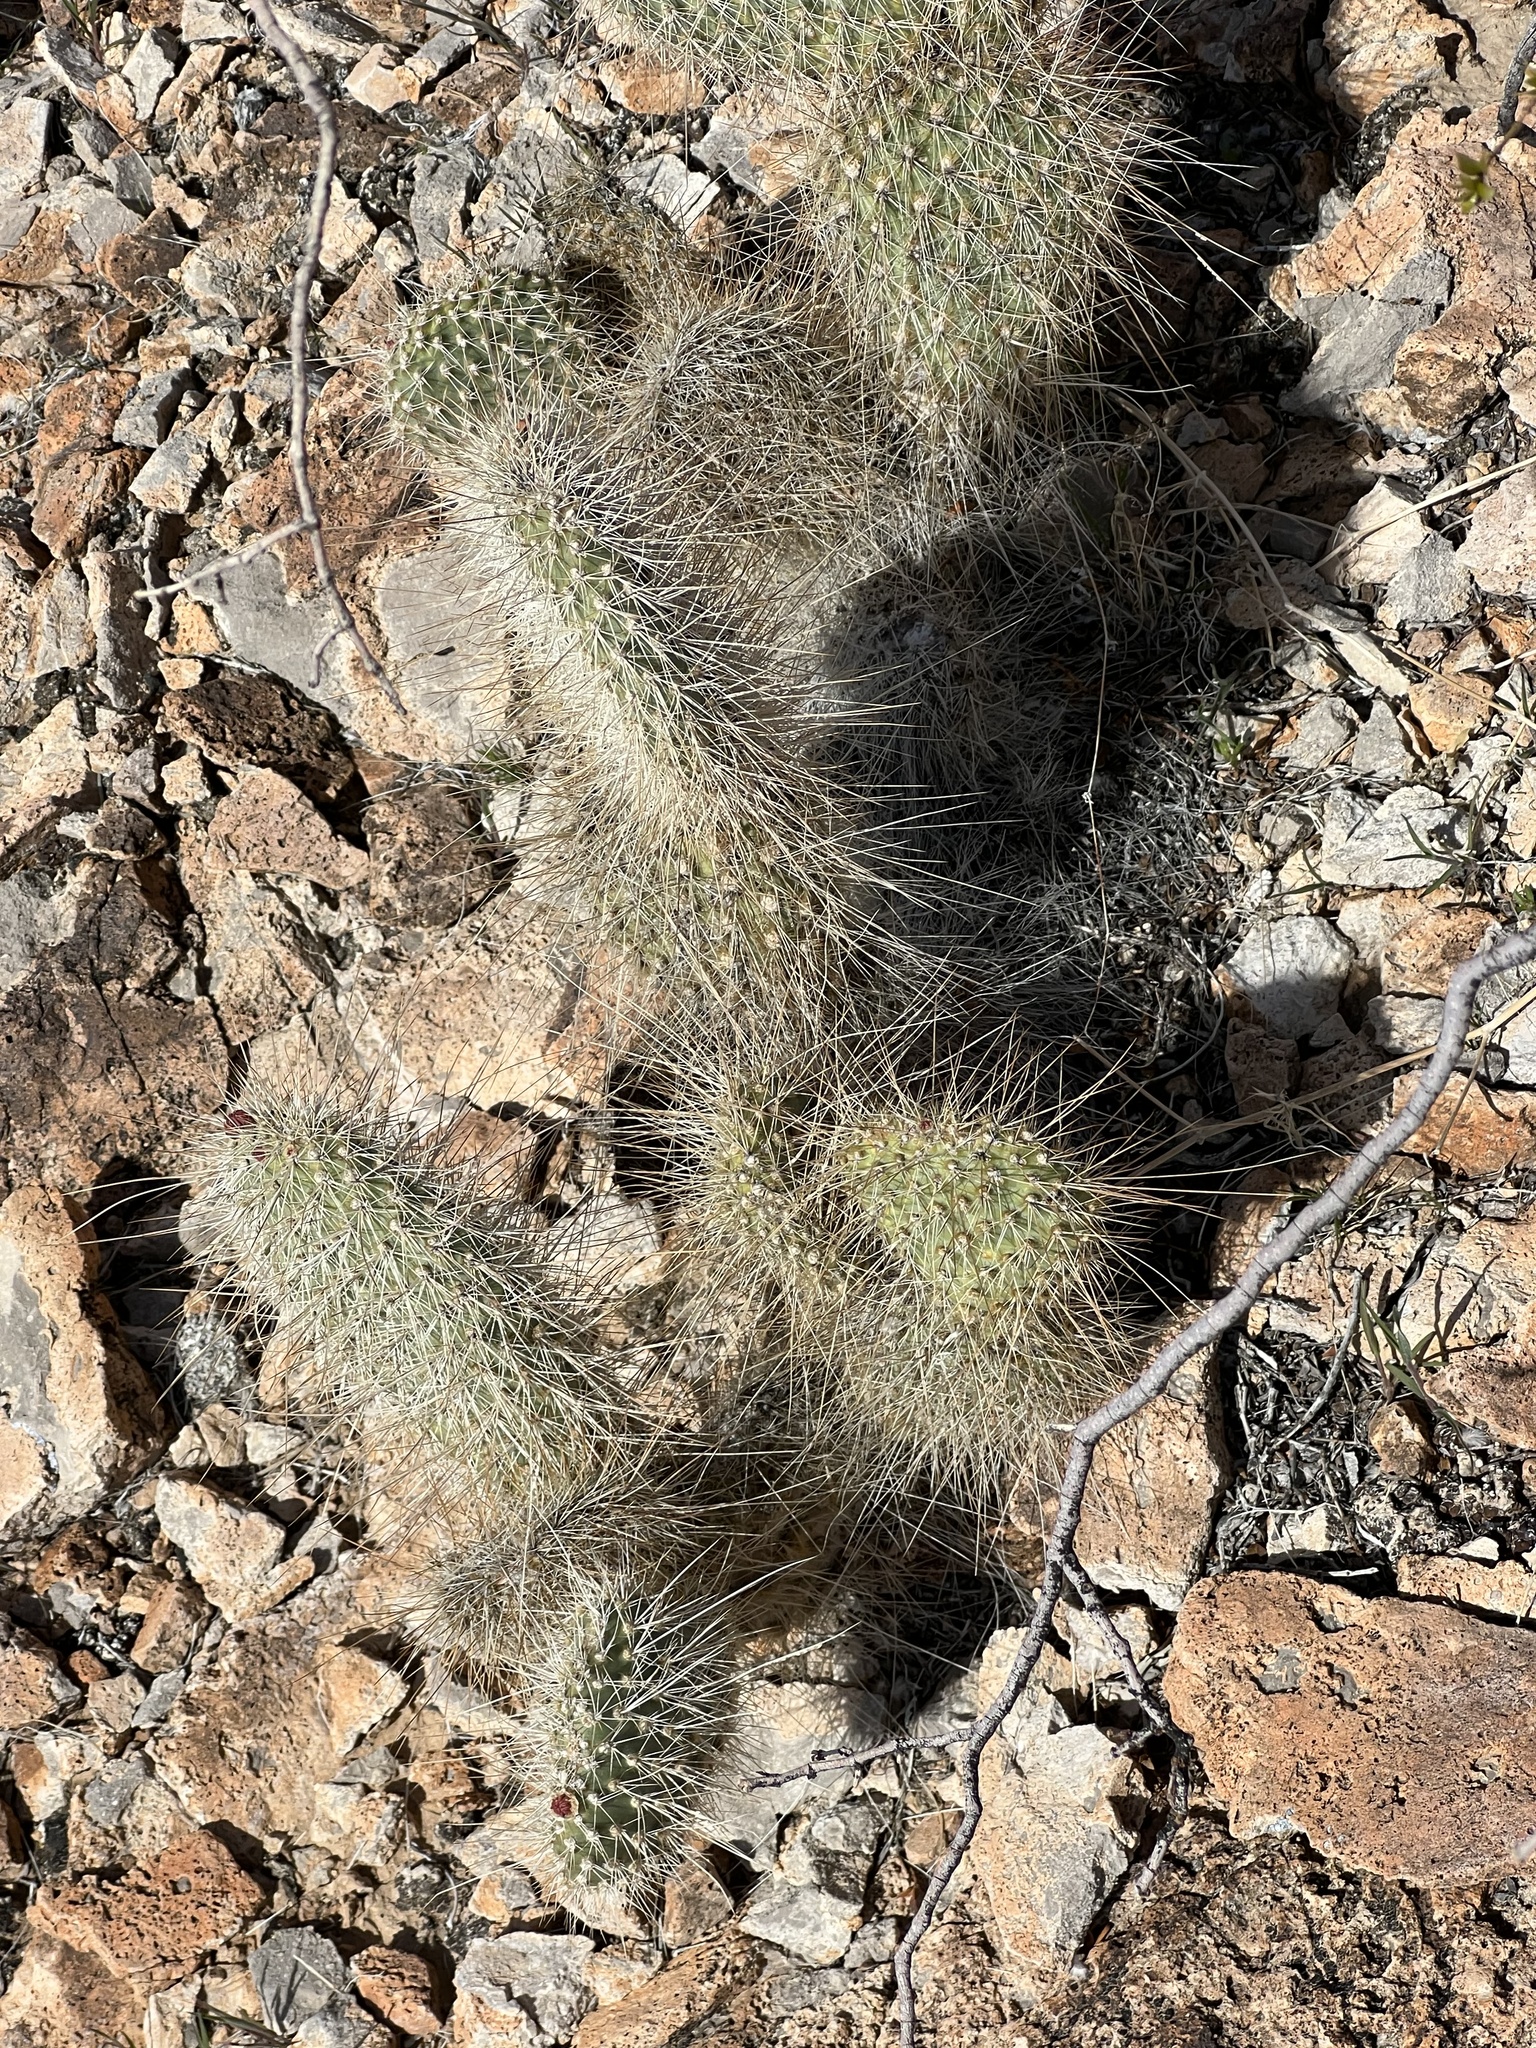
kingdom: Plantae
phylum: Tracheophyta
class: Magnoliopsida
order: Caryophyllales
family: Cactaceae
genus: Opuntia
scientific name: Opuntia polyacantha
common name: Plains prickly-pear
